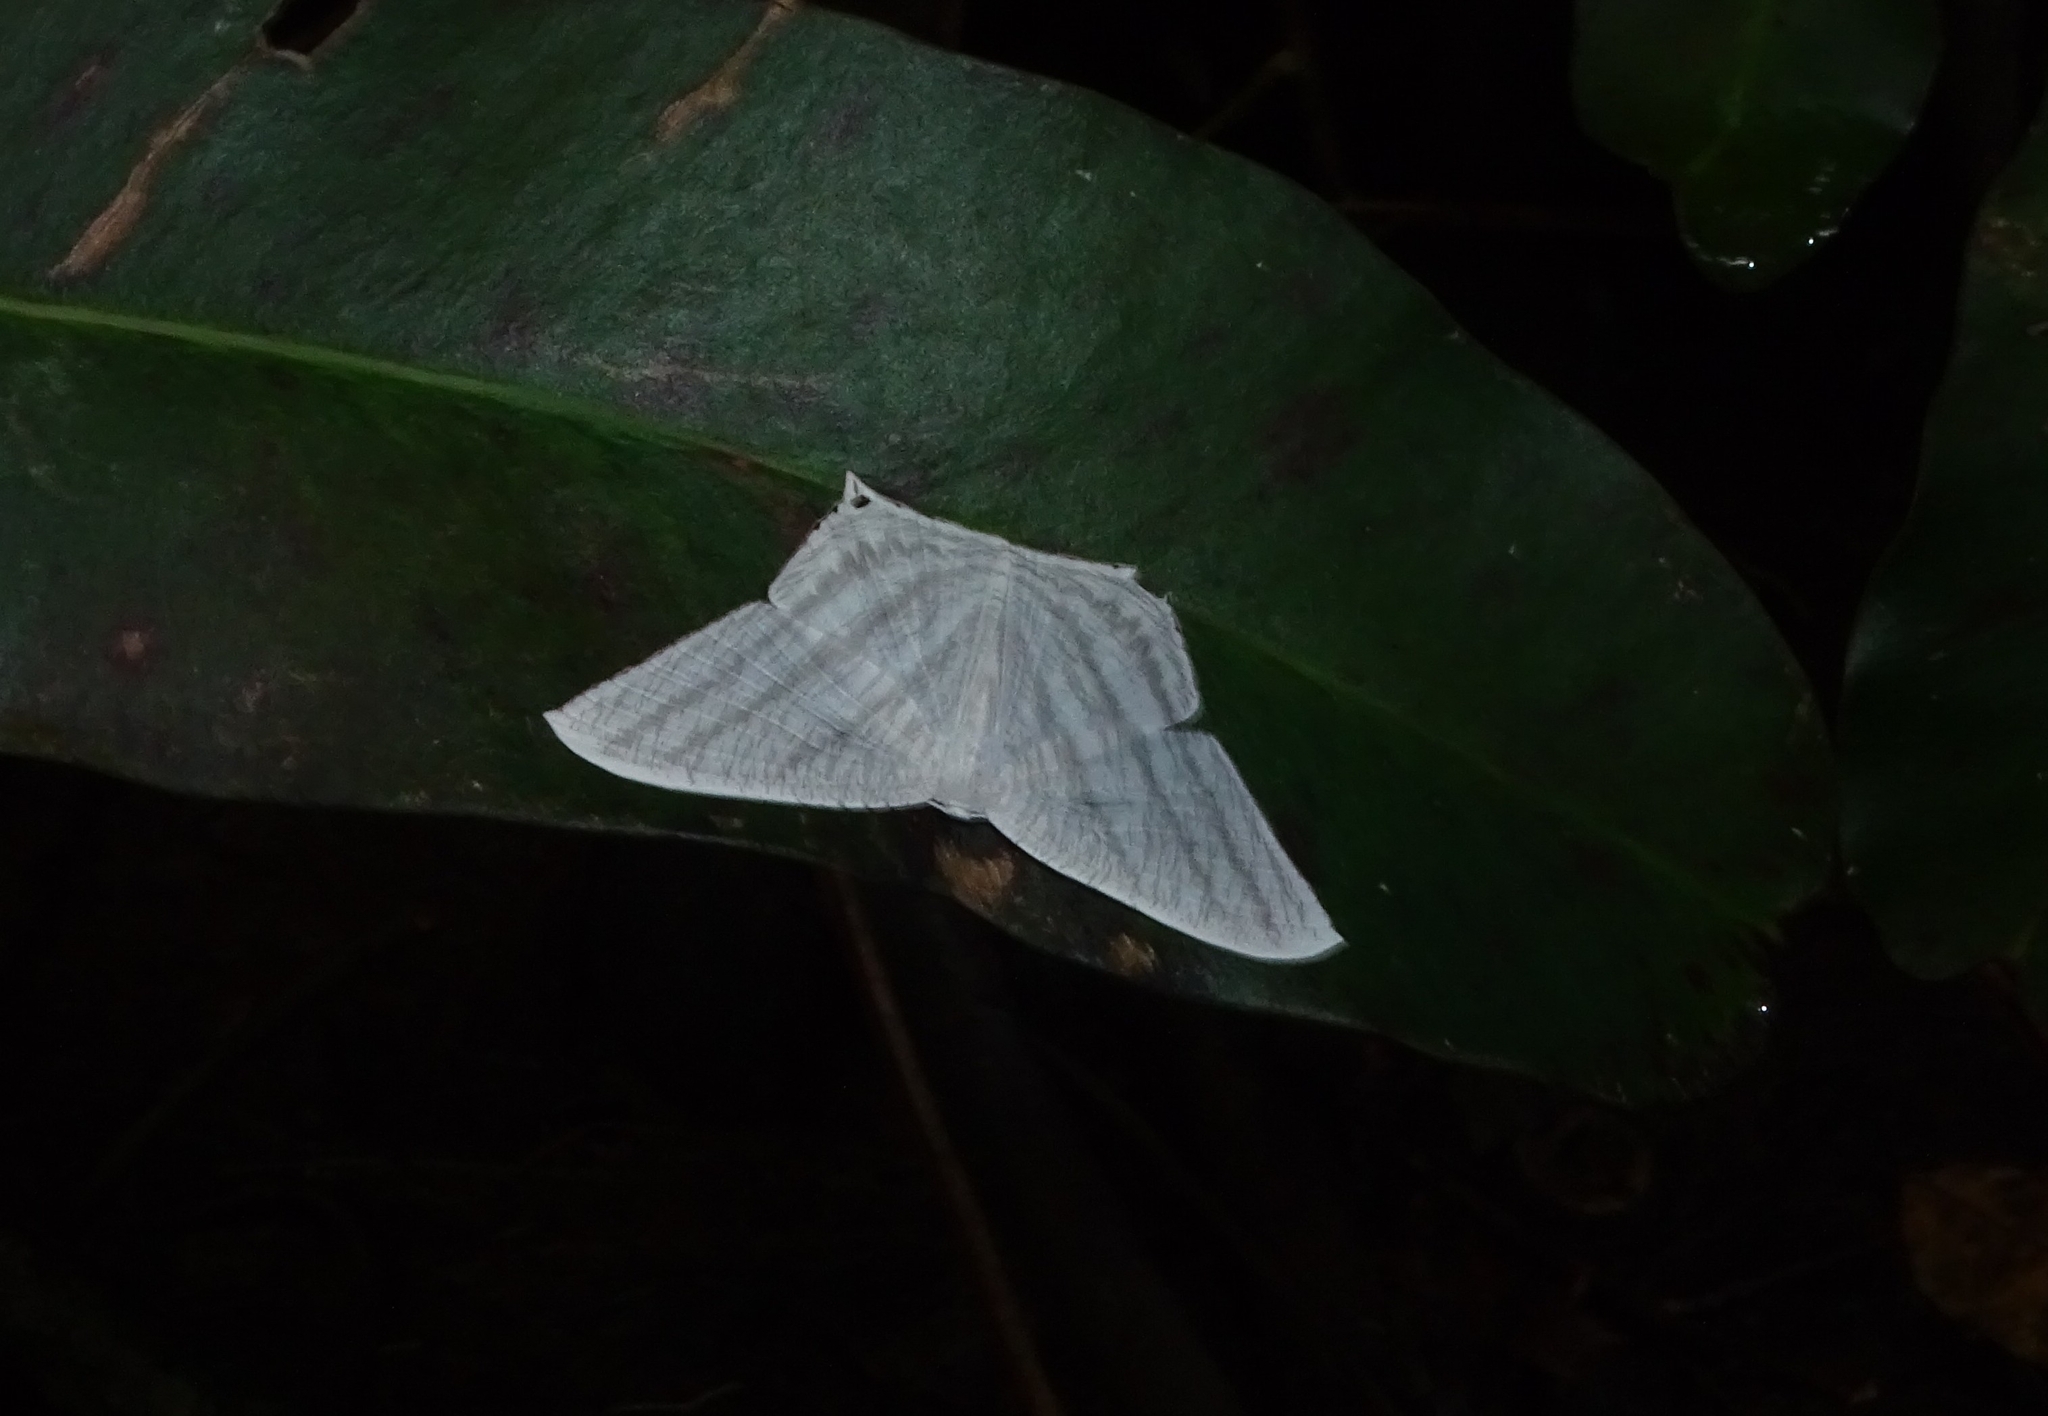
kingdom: Animalia
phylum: Arthropoda
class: Insecta
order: Lepidoptera
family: Uraniidae
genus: Micronia
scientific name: Micronia aculeata
